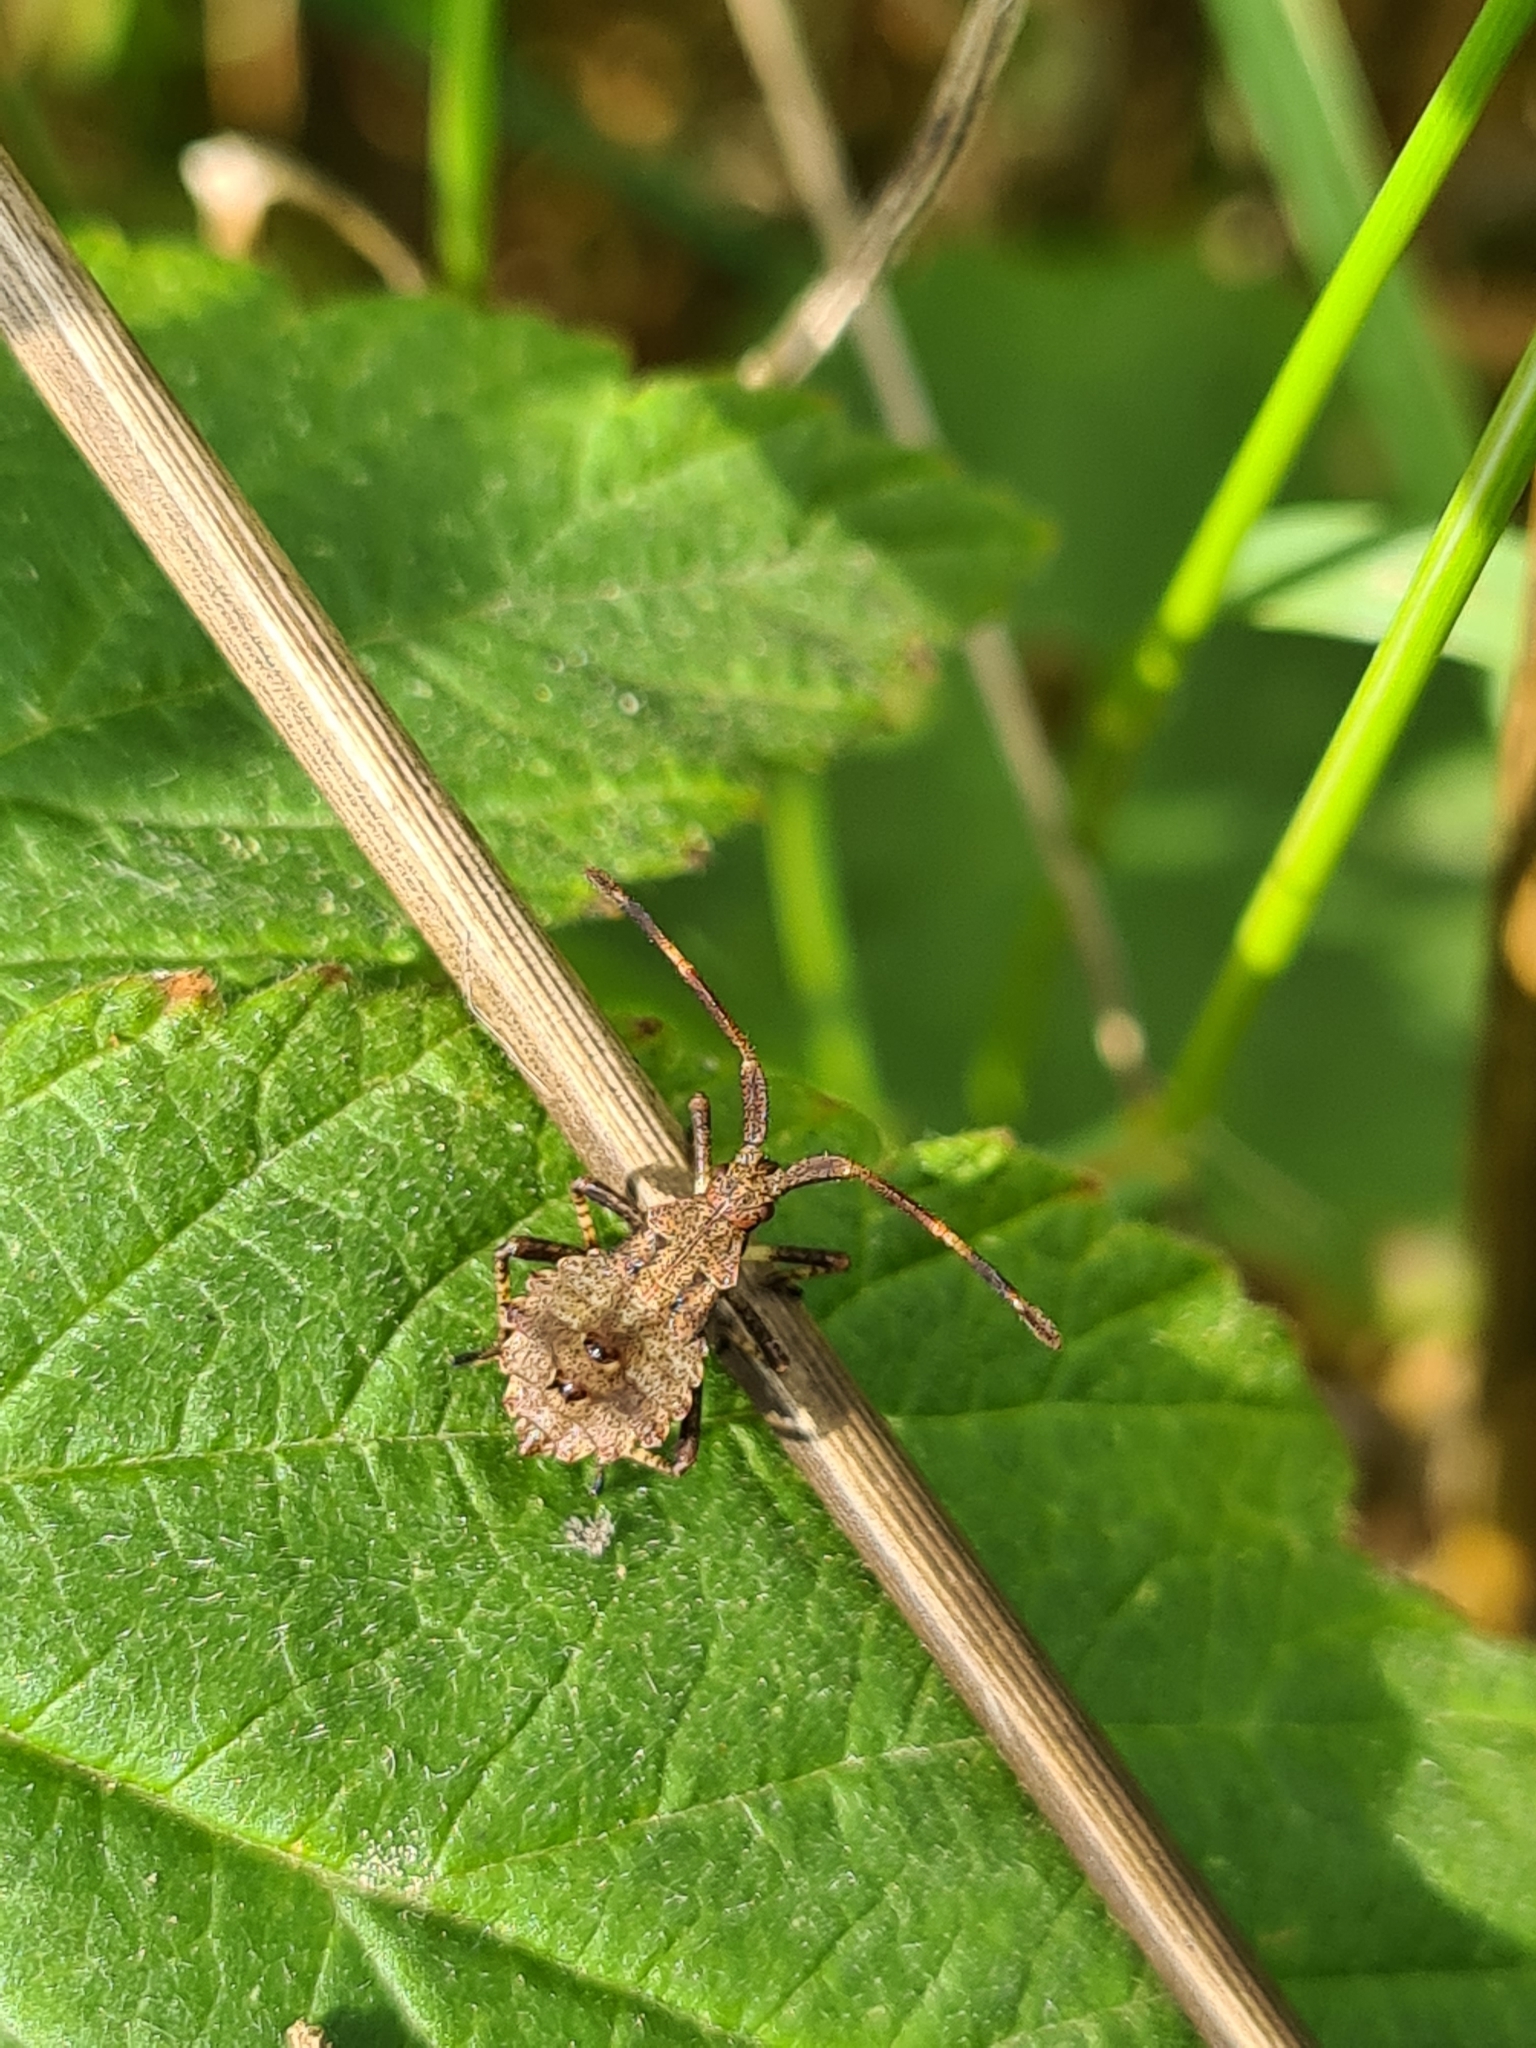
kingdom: Animalia
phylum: Arthropoda
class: Insecta
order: Hemiptera
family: Coreidae
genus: Coreus
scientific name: Coreus marginatus
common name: Dock bug
